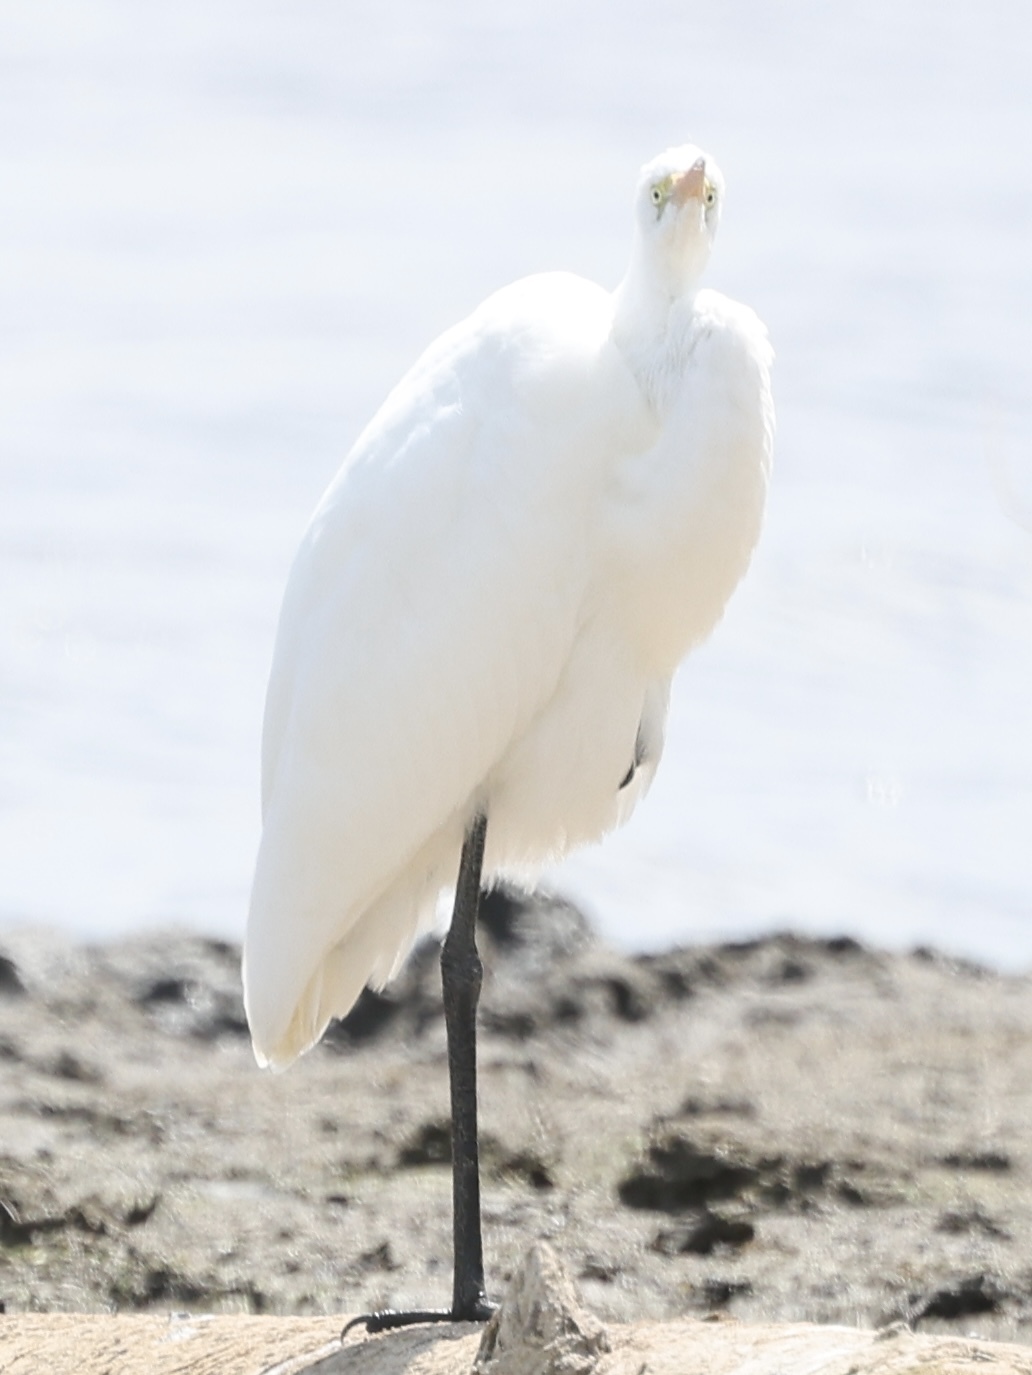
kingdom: Animalia
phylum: Chordata
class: Aves
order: Pelecaniformes
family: Ardeidae
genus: Ardea
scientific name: Ardea alba
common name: Great egret
